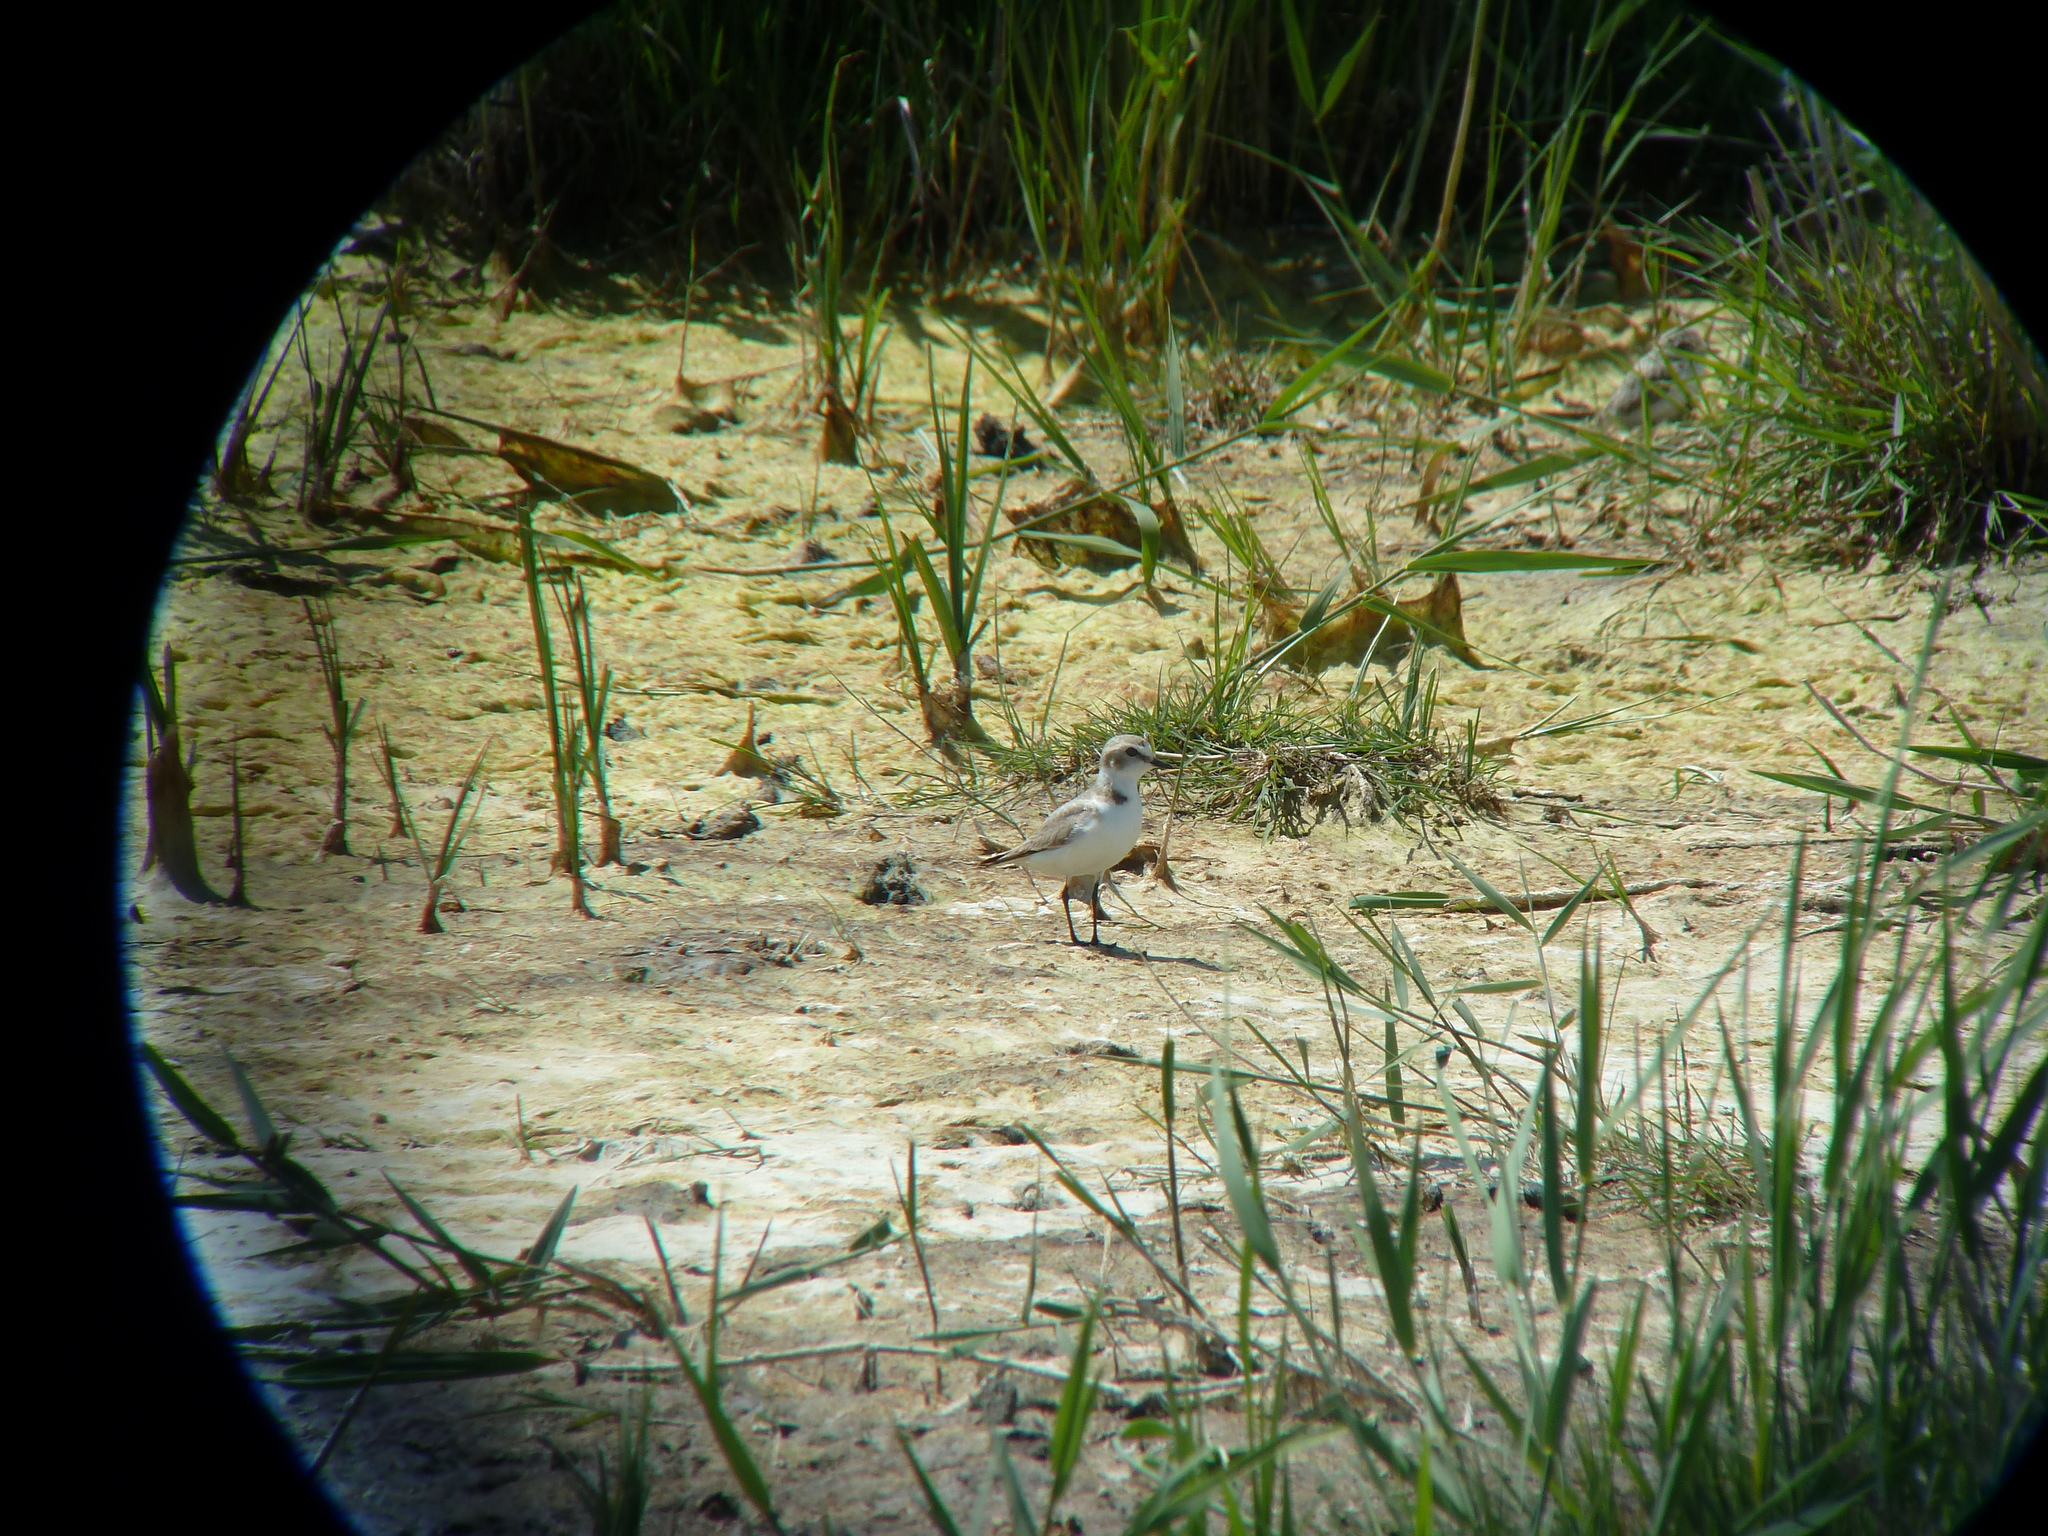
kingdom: Animalia
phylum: Chordata
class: Aves
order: Charadriiformes
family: Charadriidae
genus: Charadrius
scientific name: Charadrius alexandrinus
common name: Kentish plover
